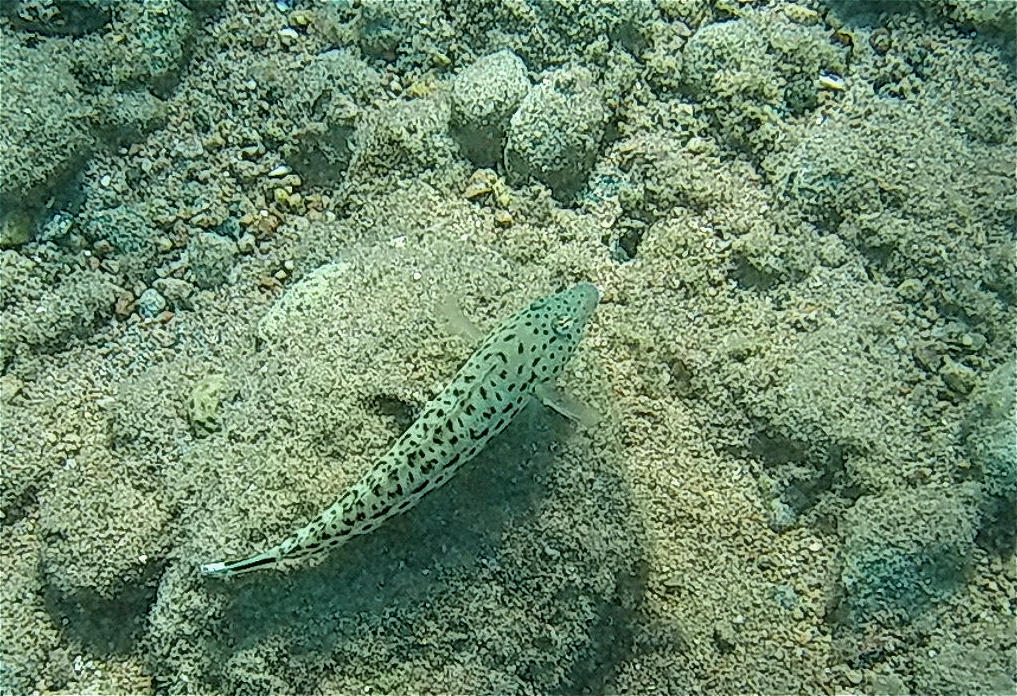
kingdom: Animalia
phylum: Chordata
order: Perciformes
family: Pinguipedidae
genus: Parapercis
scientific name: Parapercis hexophtalma
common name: Speckled sandperch
